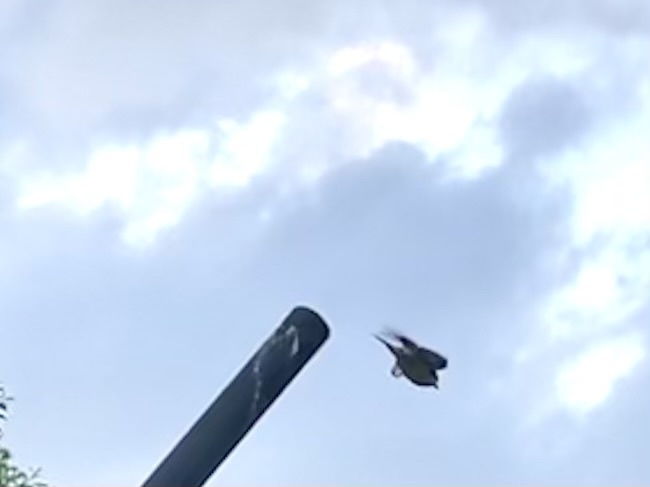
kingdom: Animalia
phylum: Chordata
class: Aves
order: Passeriformes
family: Laniidae
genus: Lanius
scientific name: Lanius collurio
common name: Red-backed shrike
